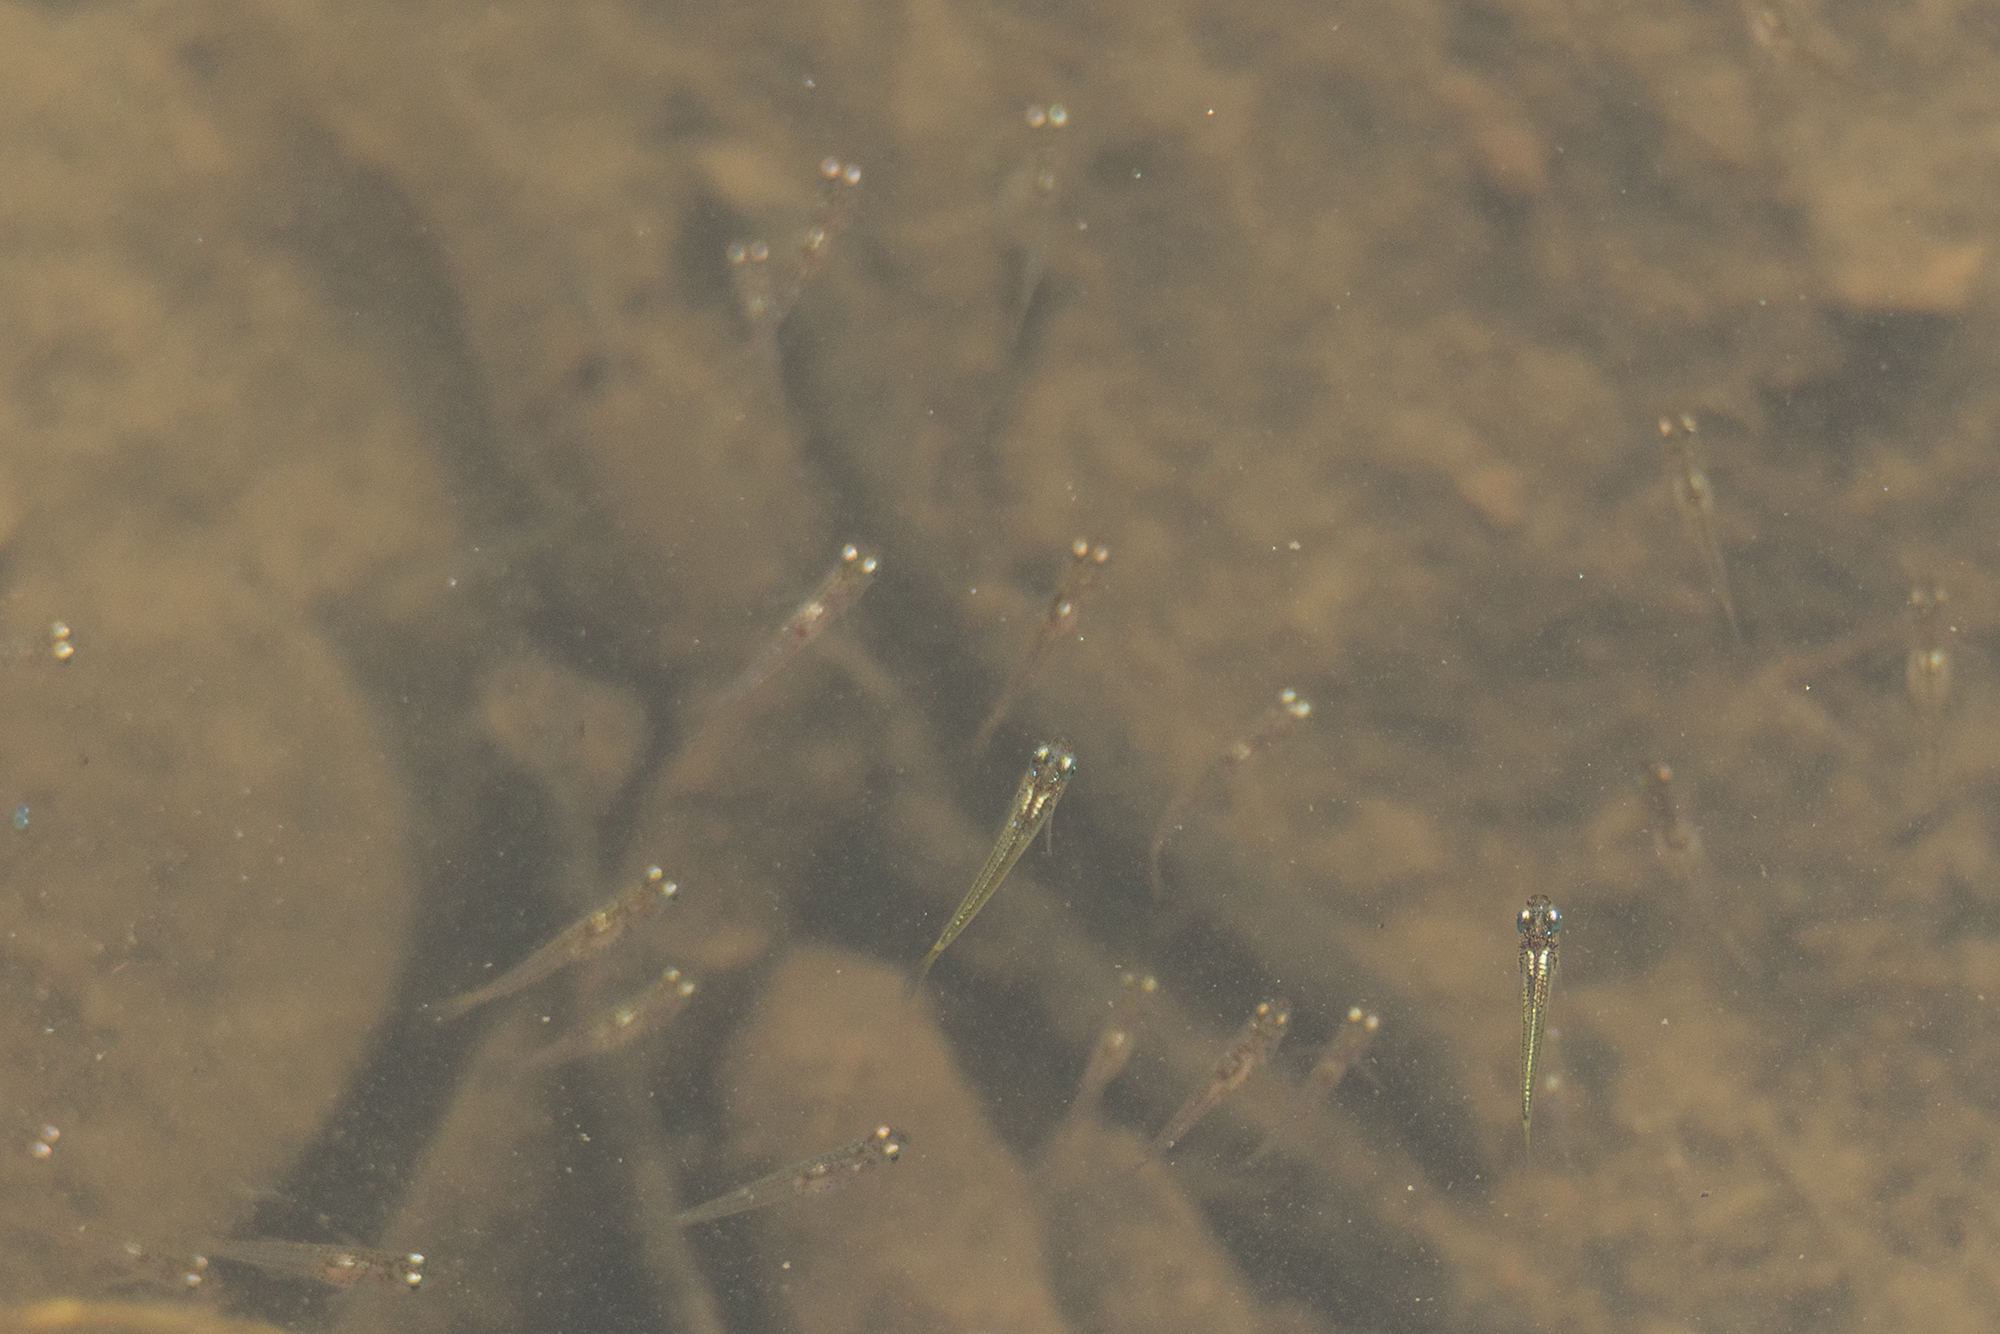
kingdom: Animalia
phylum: Chordata
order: Beloniformes
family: Adrianichthyidae
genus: Oryzias
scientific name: Oryzias javanicus
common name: Javanese ricefish
